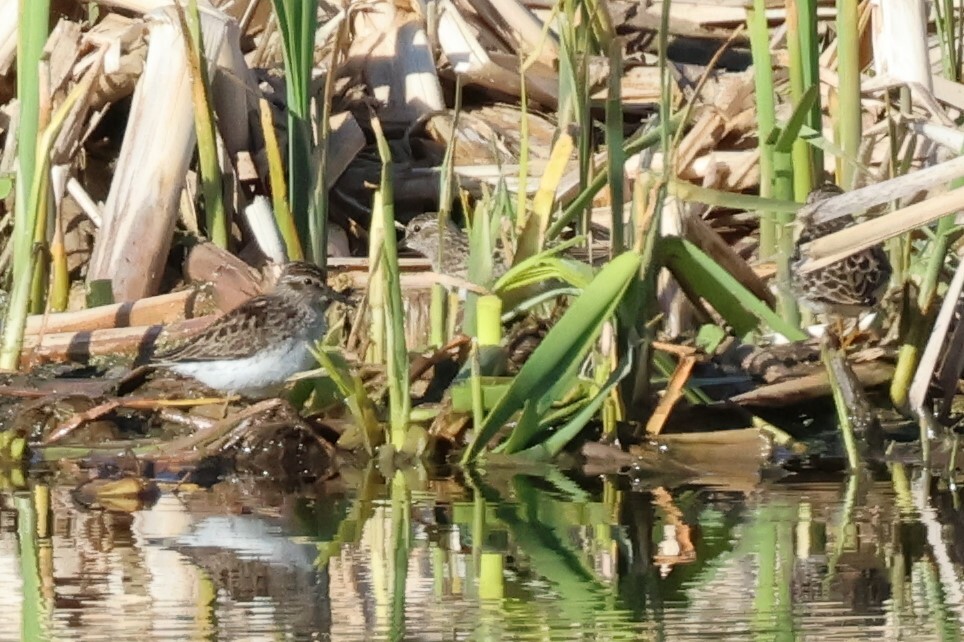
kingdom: Animalia
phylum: Chordata
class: Aves
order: Charadriiformes
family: Scolopacidae
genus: Calidris
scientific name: Calidris minutilla
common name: Least sandpiper
